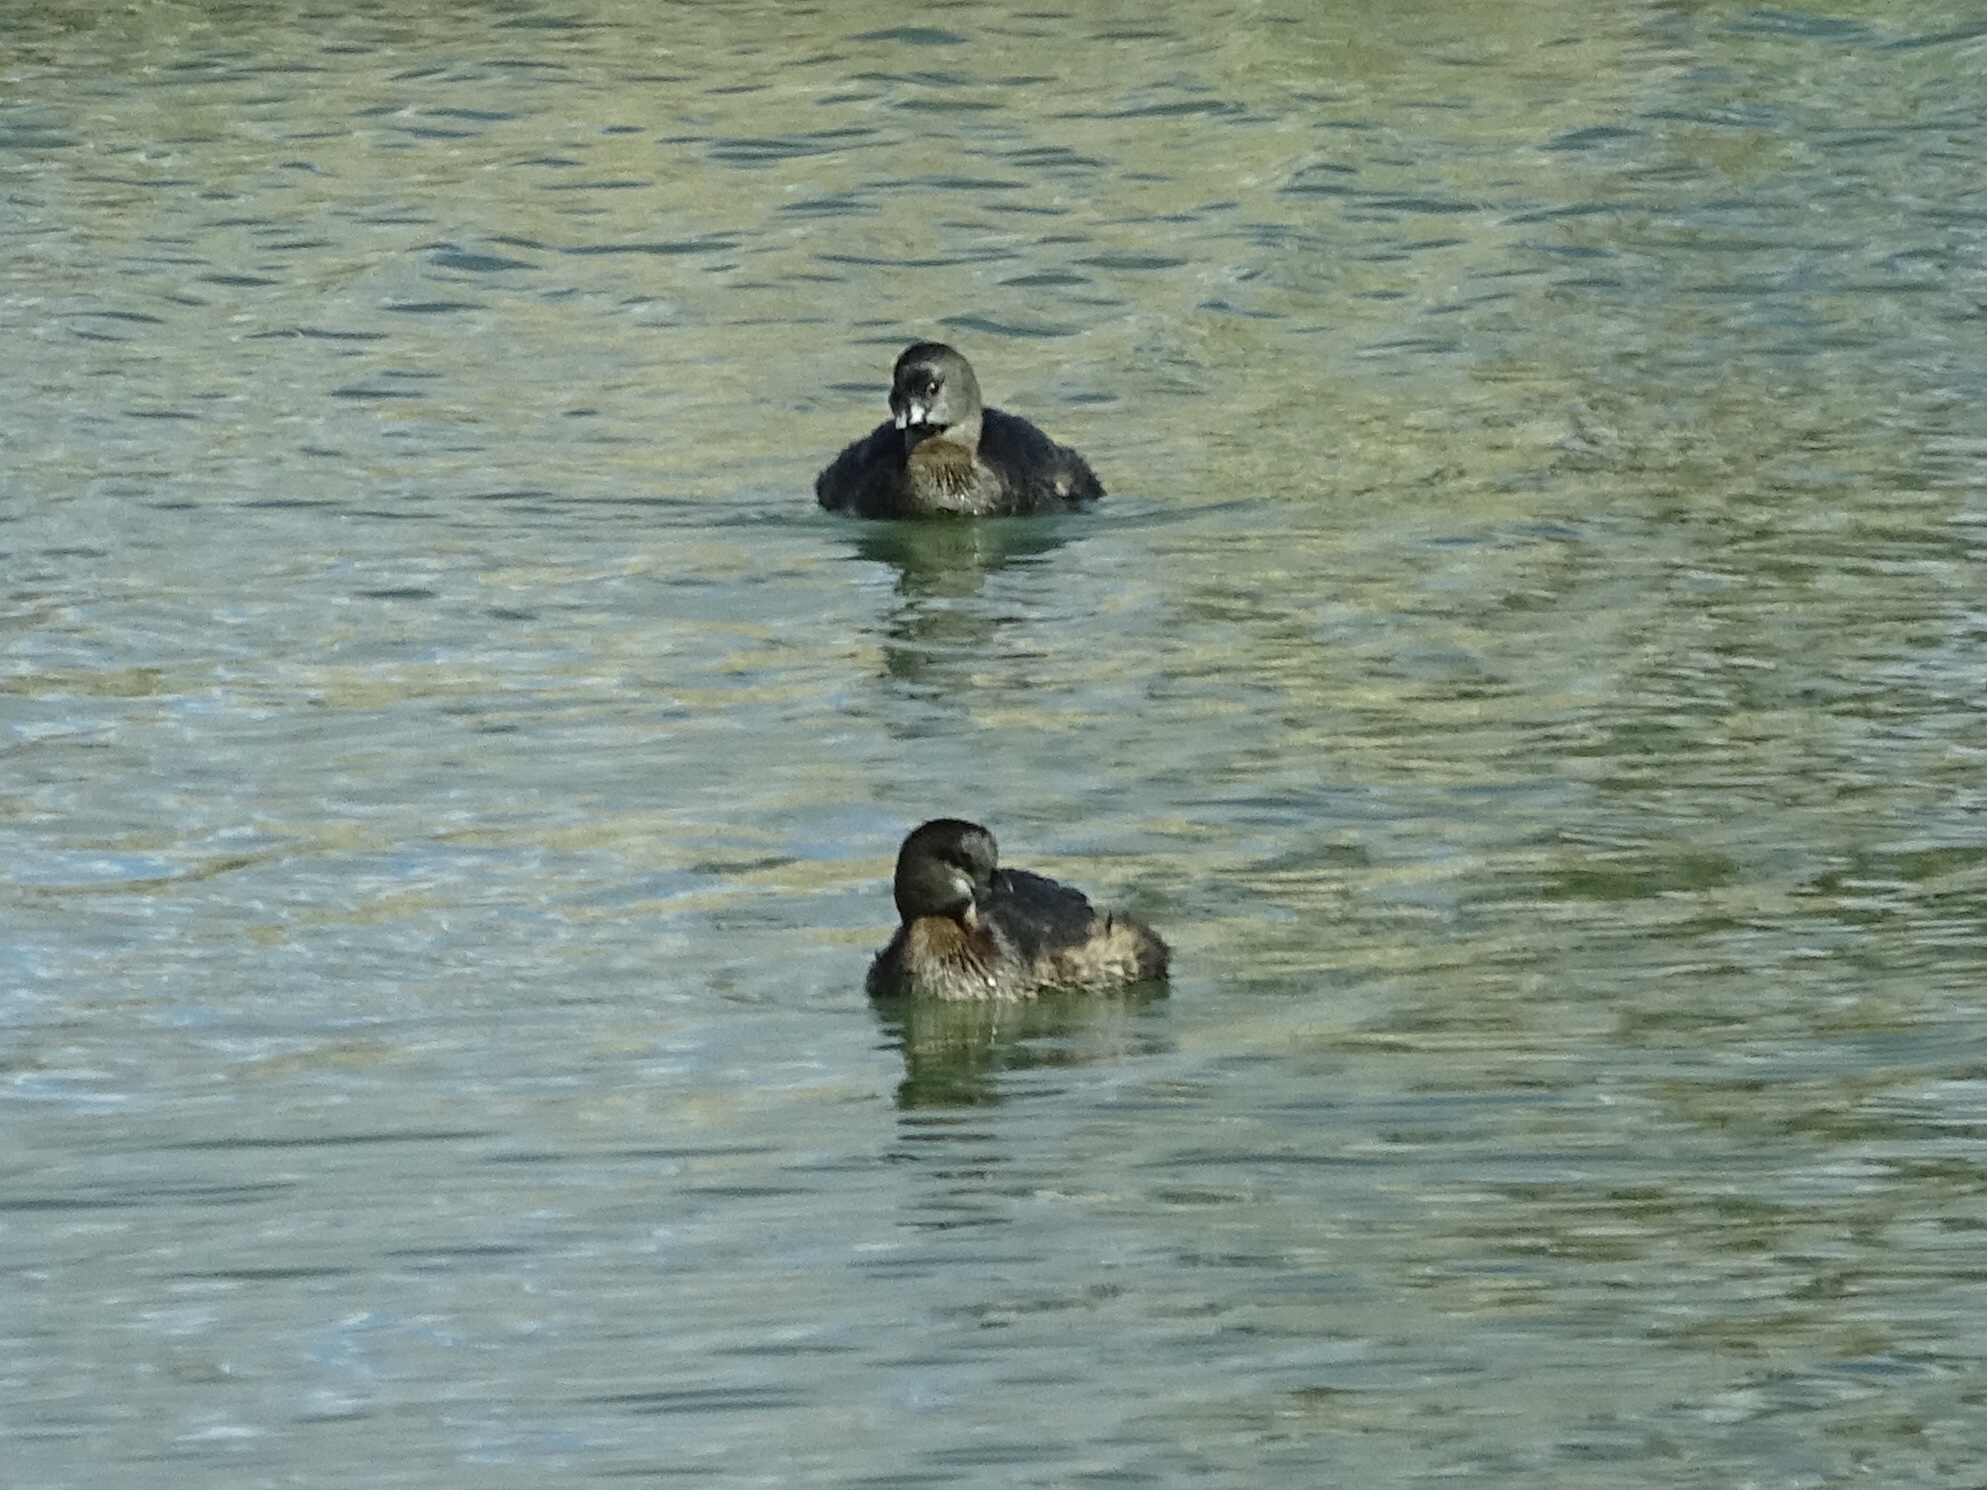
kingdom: Animalia
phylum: Chordata
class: Aves
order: Podicipediformes
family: Podicipedidae
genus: Podilymbus
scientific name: Podilymbus podiceps
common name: Pied-billed grebe
